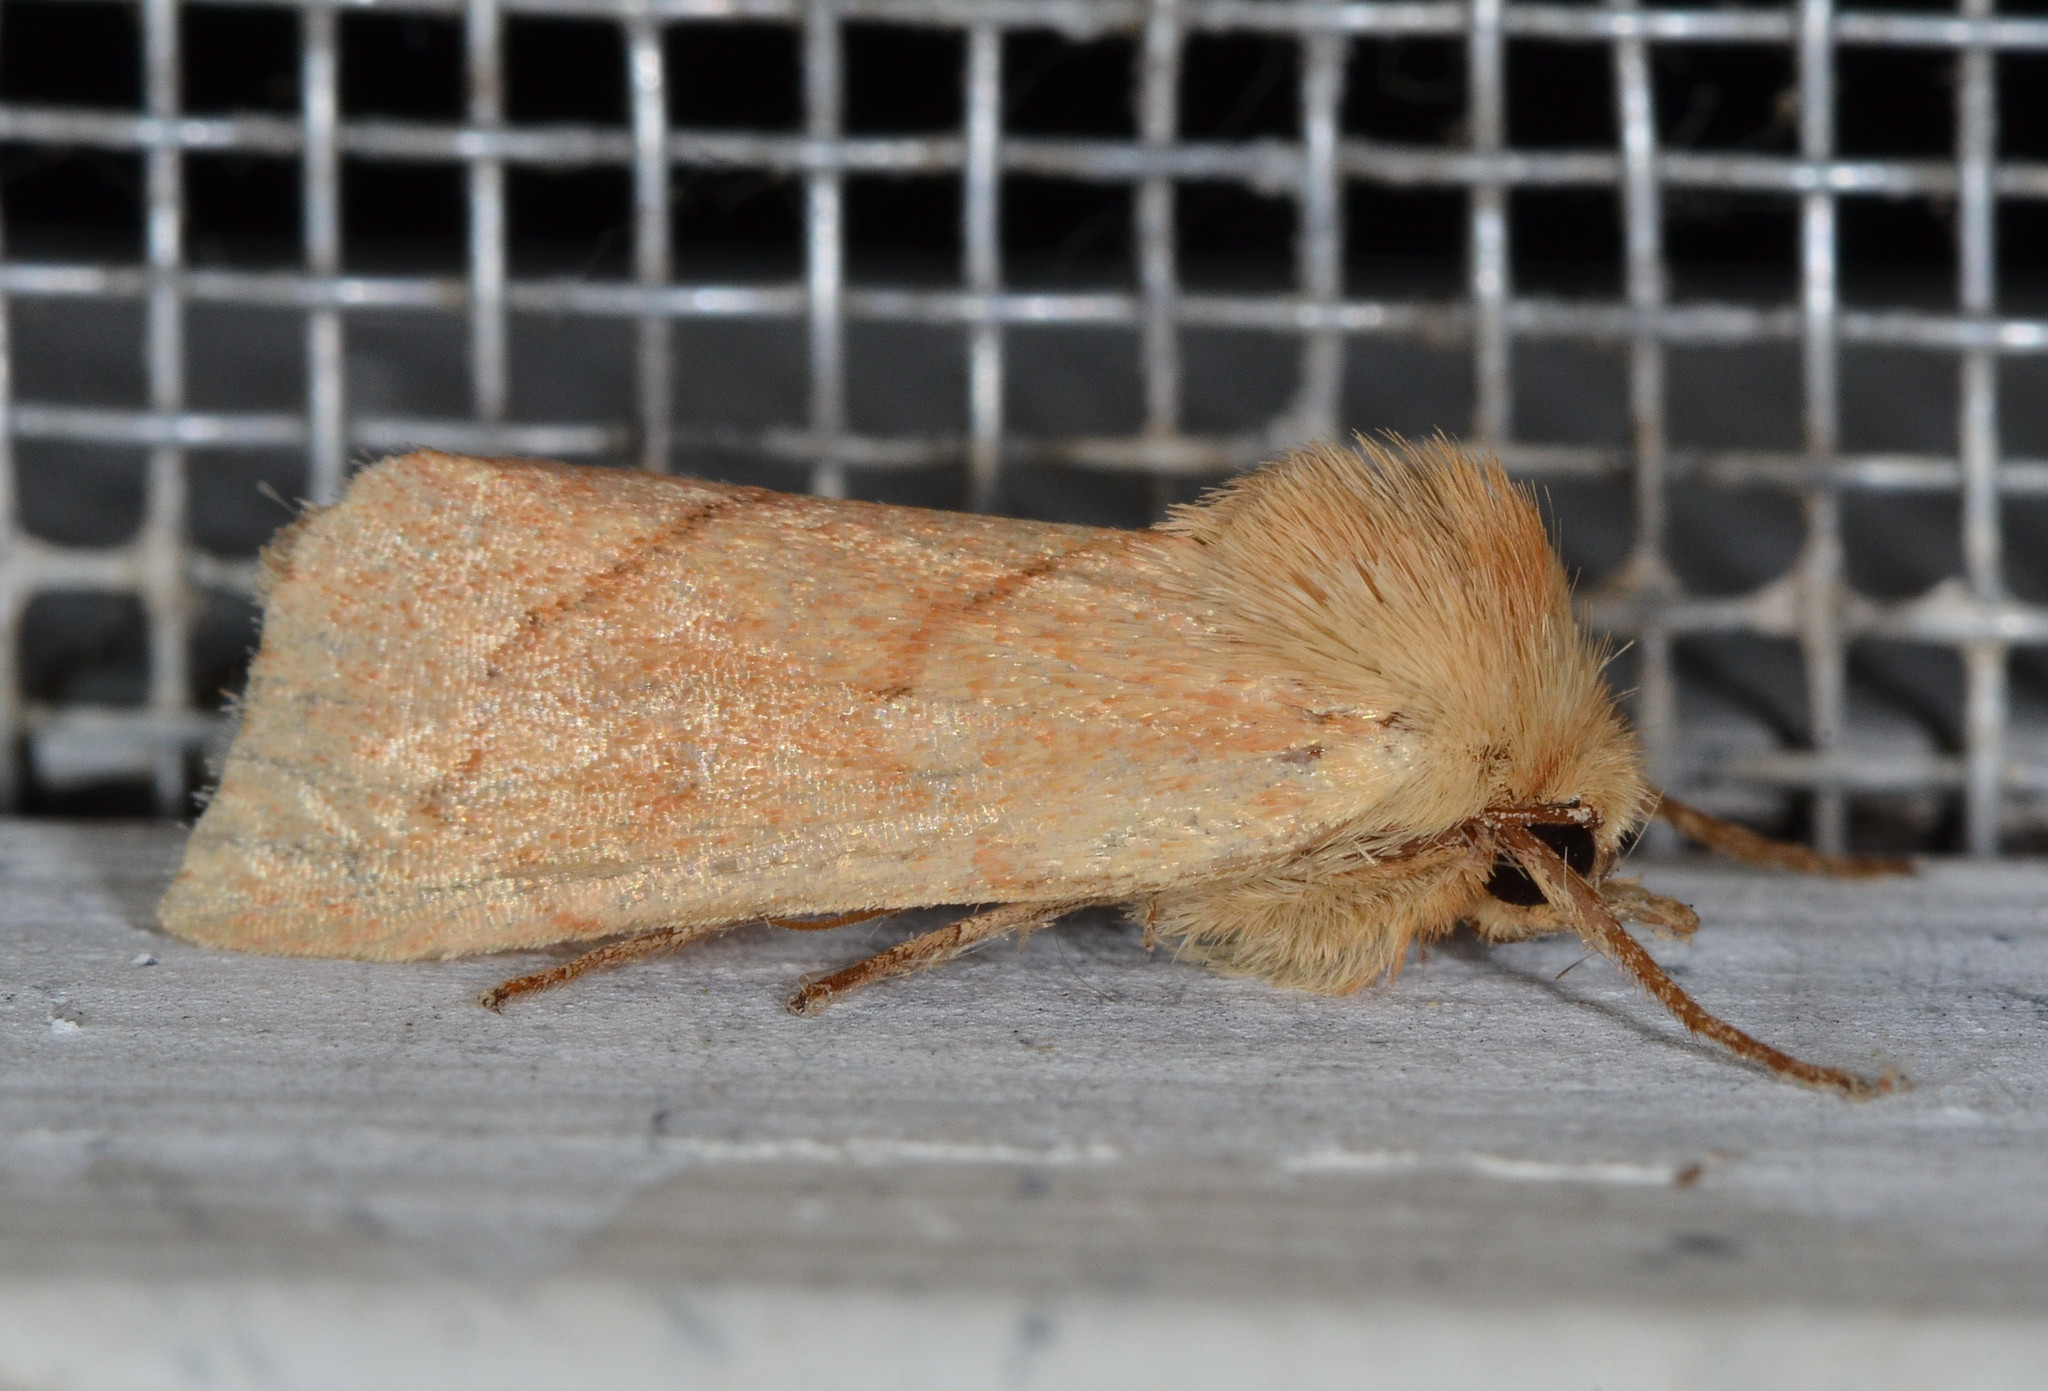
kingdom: Animalia
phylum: Arthropoda
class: Insecta
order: Lepidoptera
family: Noctuidae
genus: Zosteropoda
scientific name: Zosteropoda hirtipes
